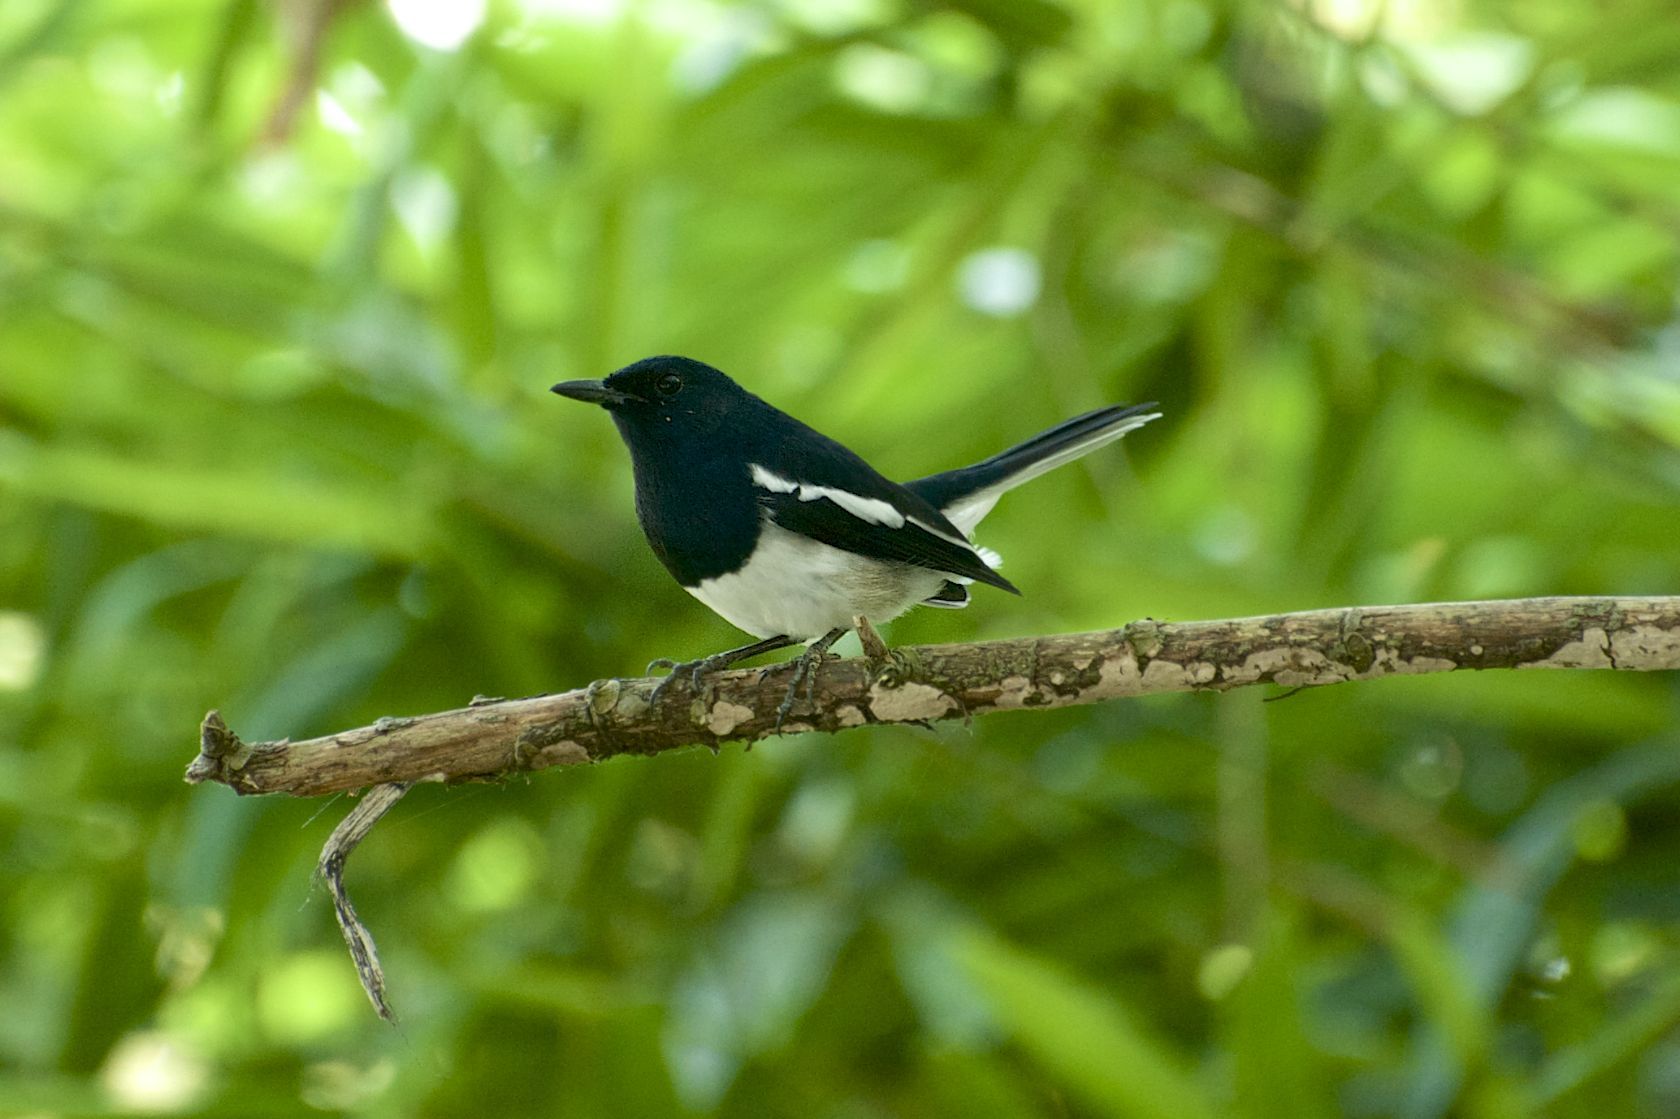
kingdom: Animalia
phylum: Chordata
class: Aves
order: Passeriformes
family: Muscicapidae
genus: Copsychus
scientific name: Copsychus saularis
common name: Oriental magpie-robin
